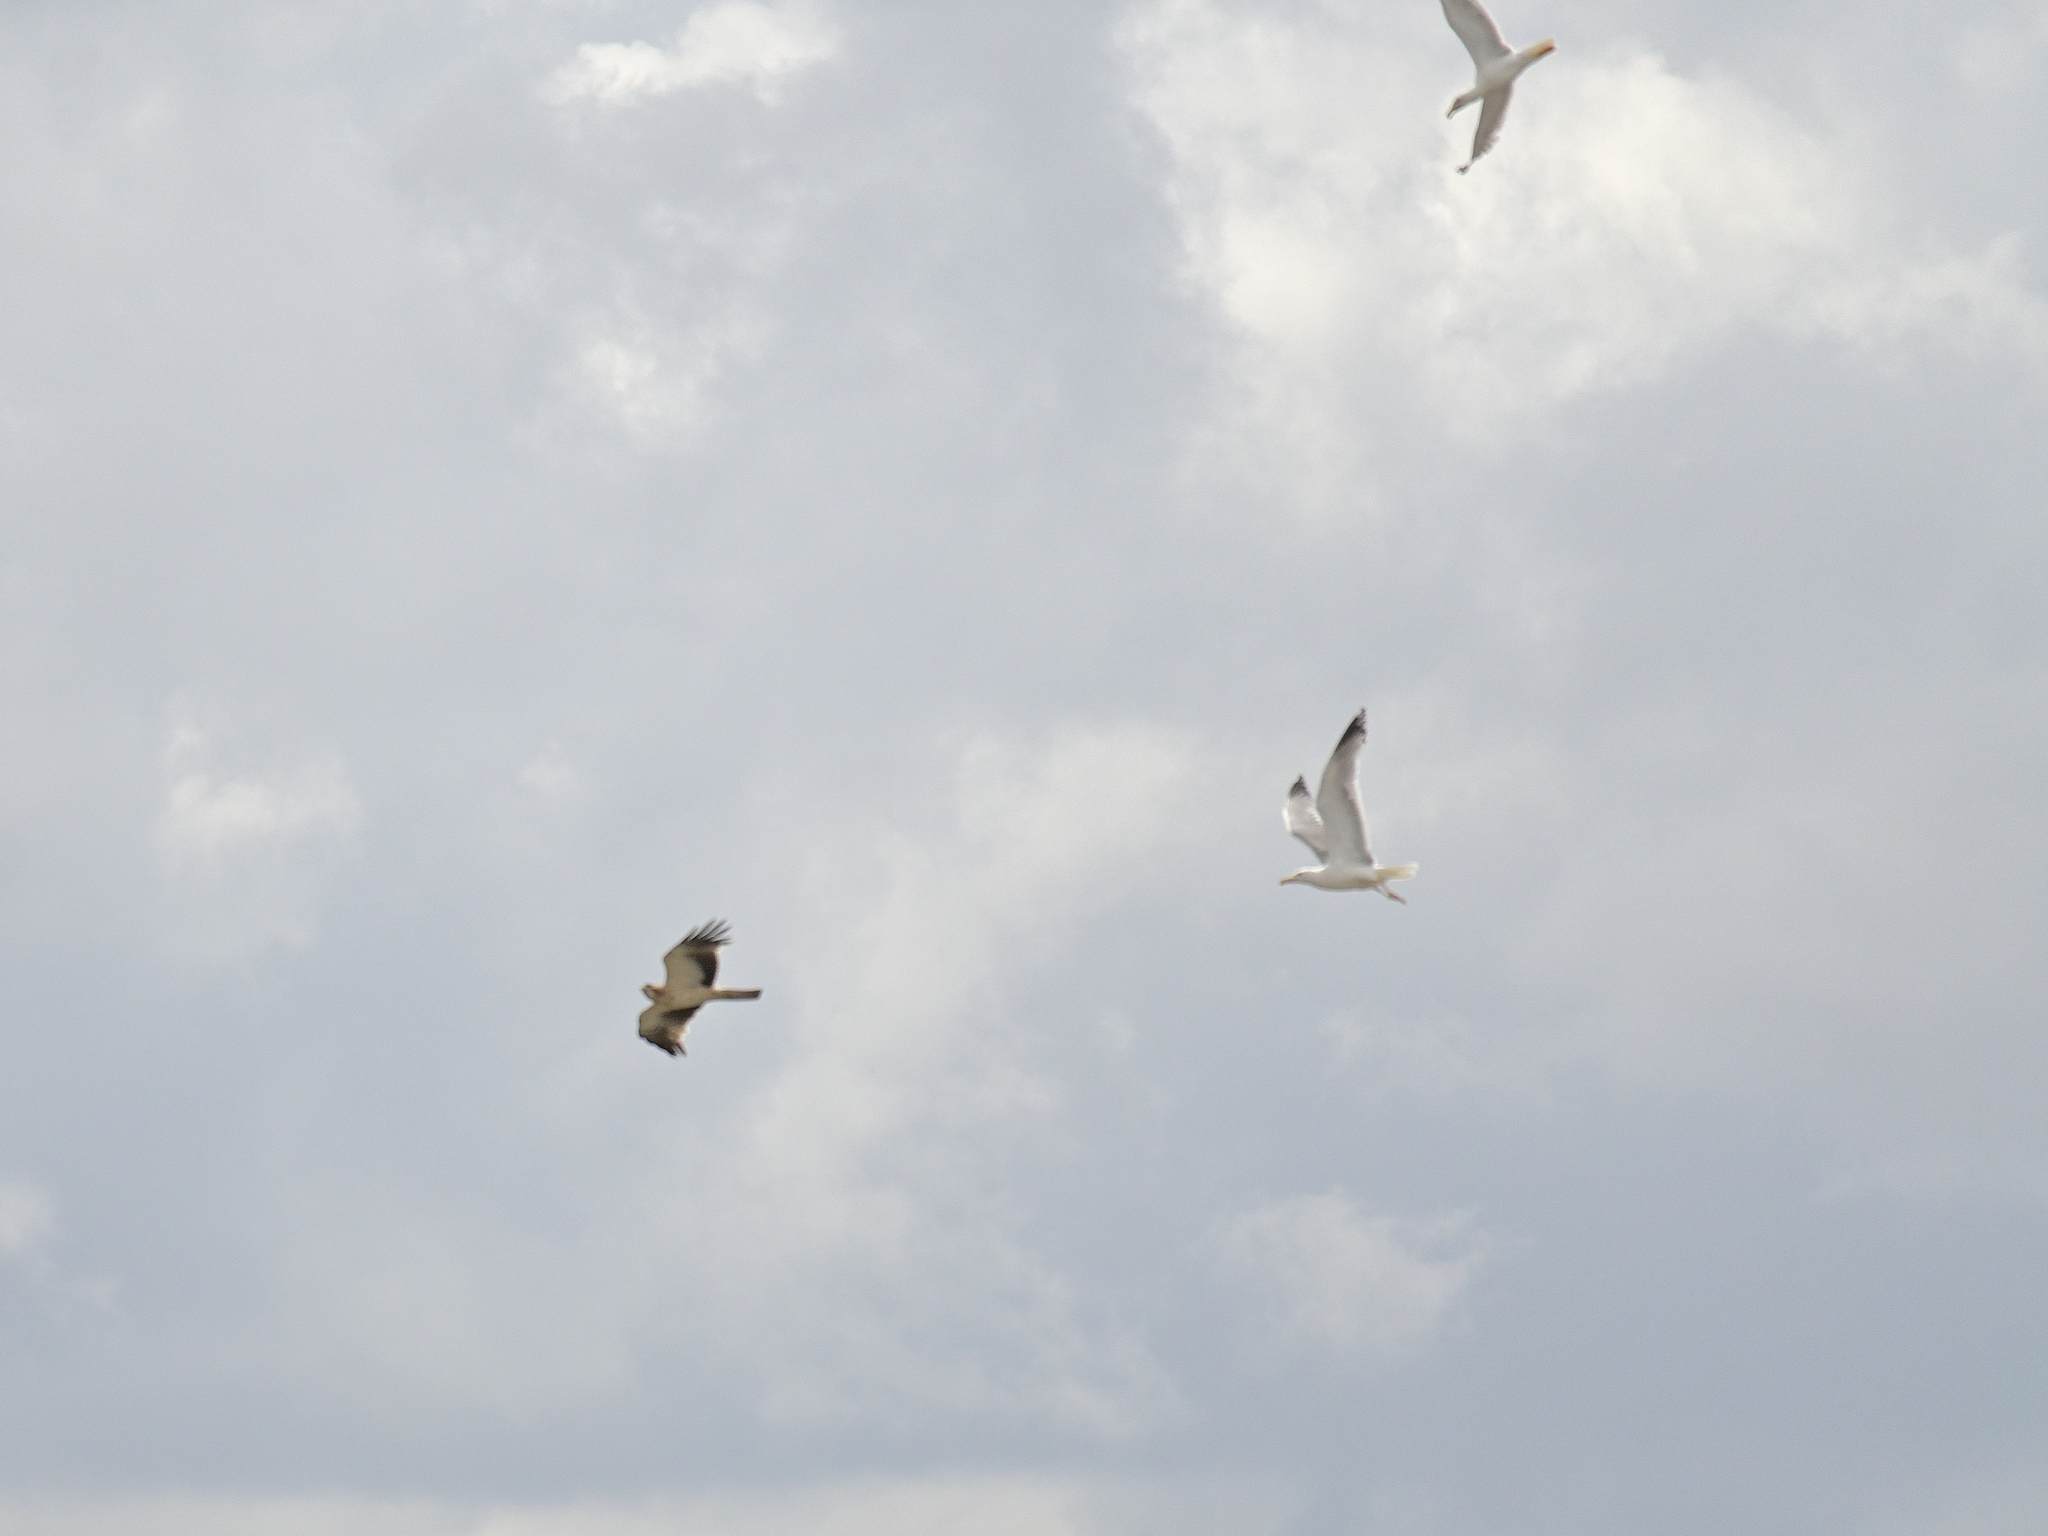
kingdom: Animalia
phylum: Chordata
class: Aves
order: Accipitriformes
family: Accipitridae
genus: Hieraaetus
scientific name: Hieraaetus pennatus
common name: Booted eagle
